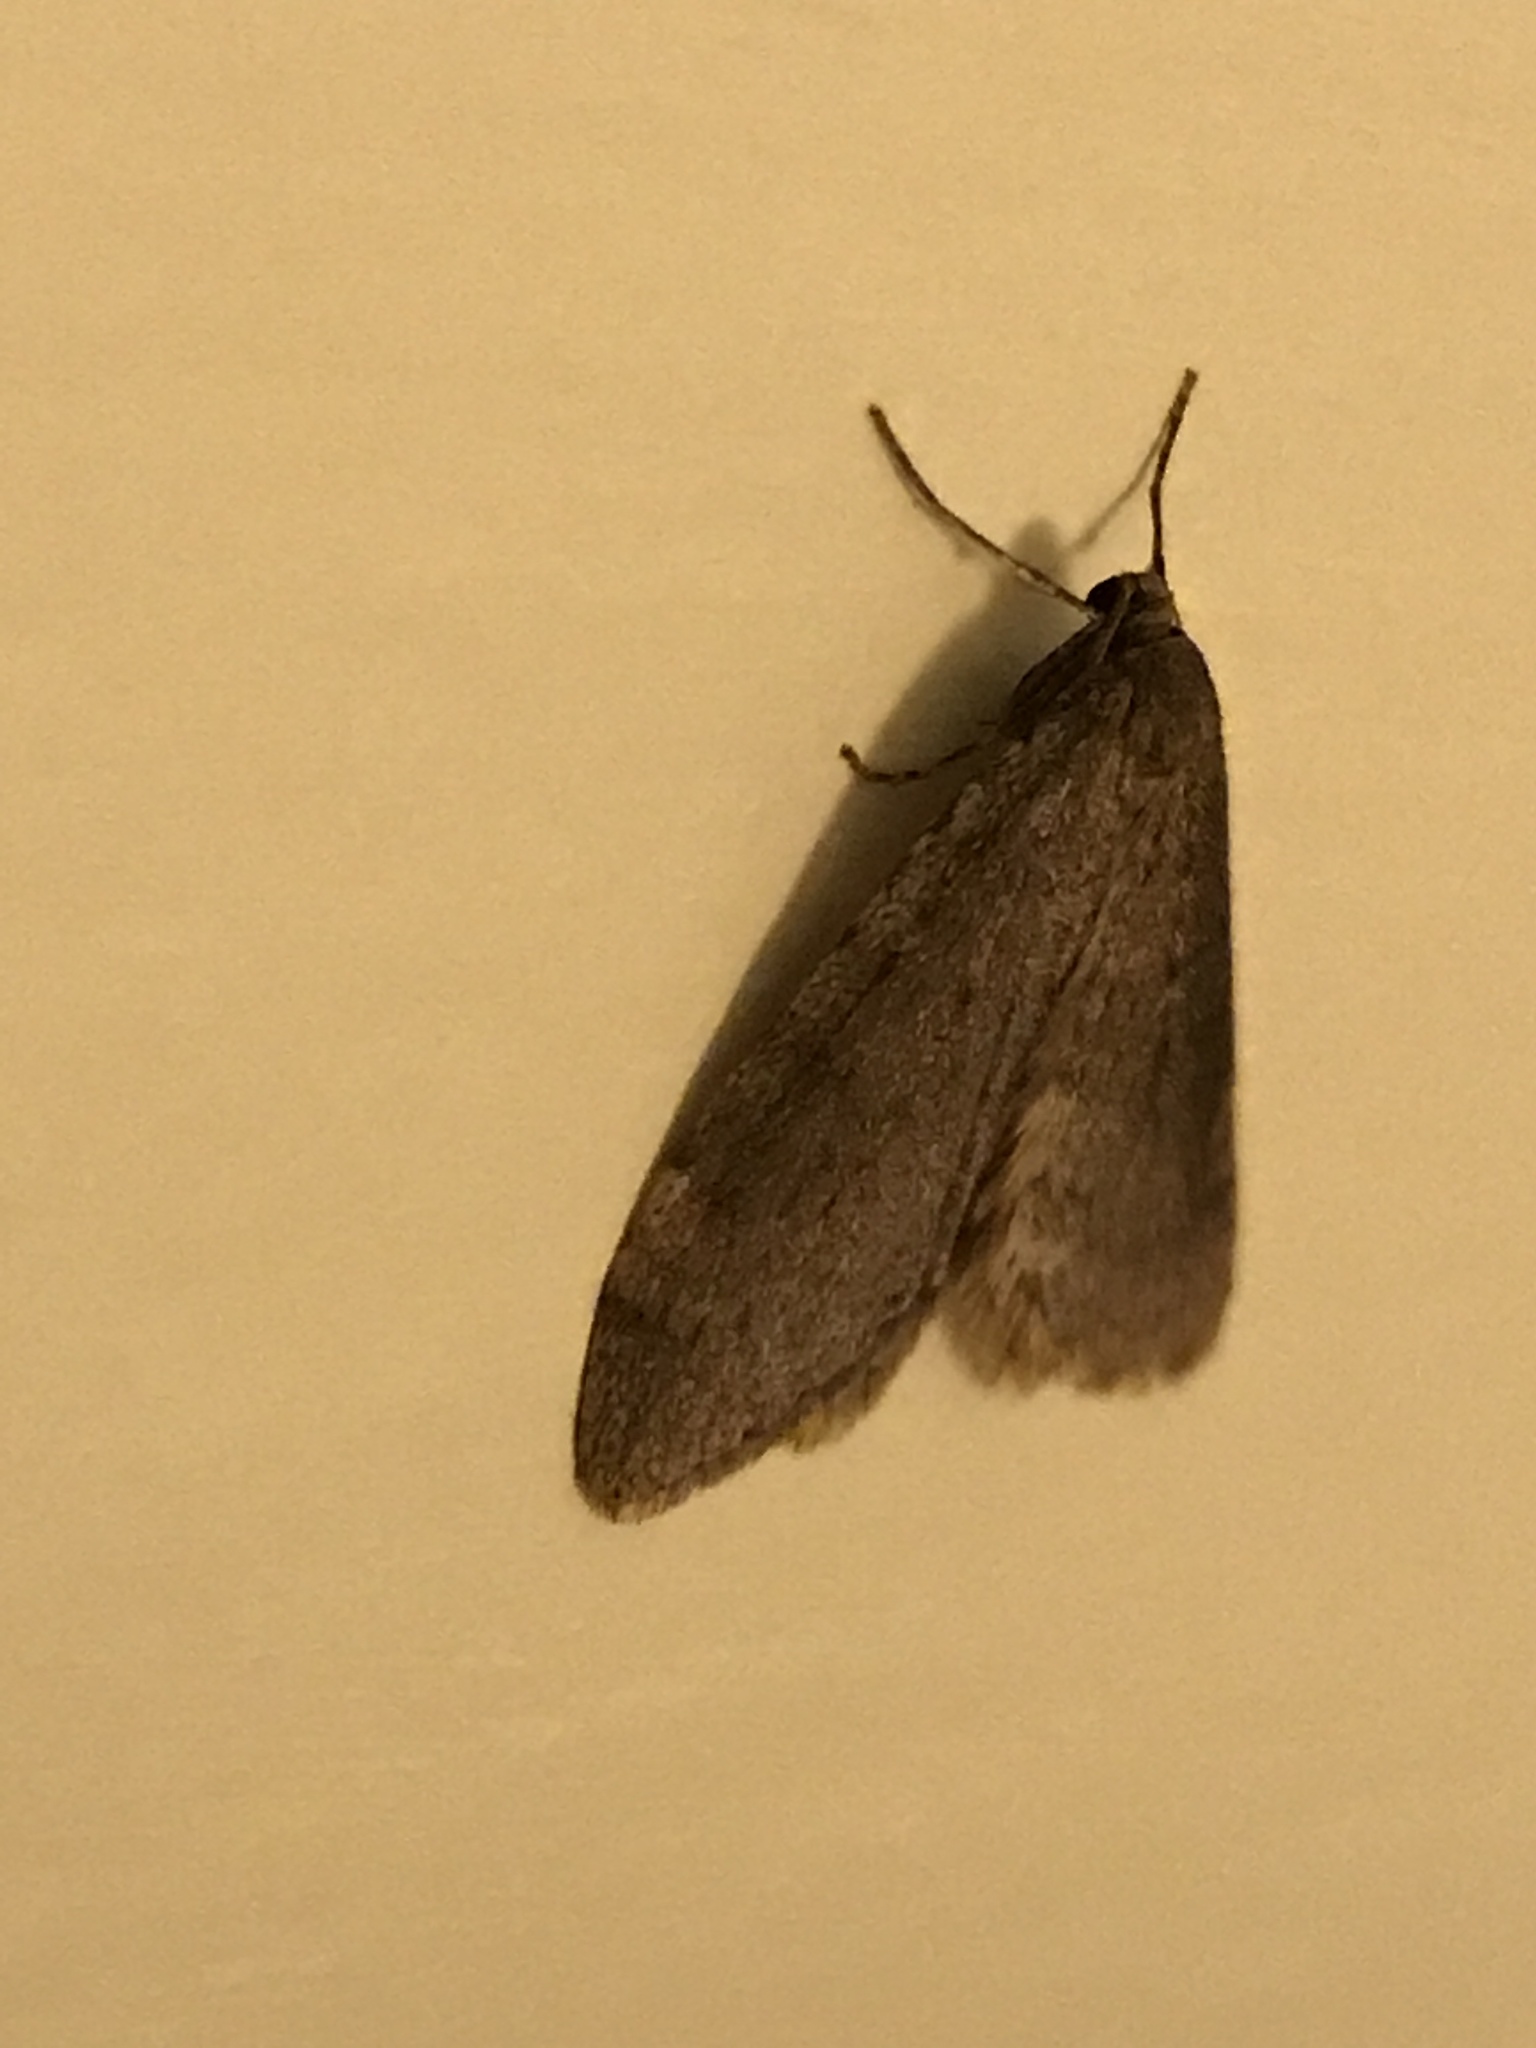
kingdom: Animalia
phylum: Arthropoda
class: Insecta
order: Lepidoptera
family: Geometridae
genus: Operophtera
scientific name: Operophtera brumata
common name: Winter moth
